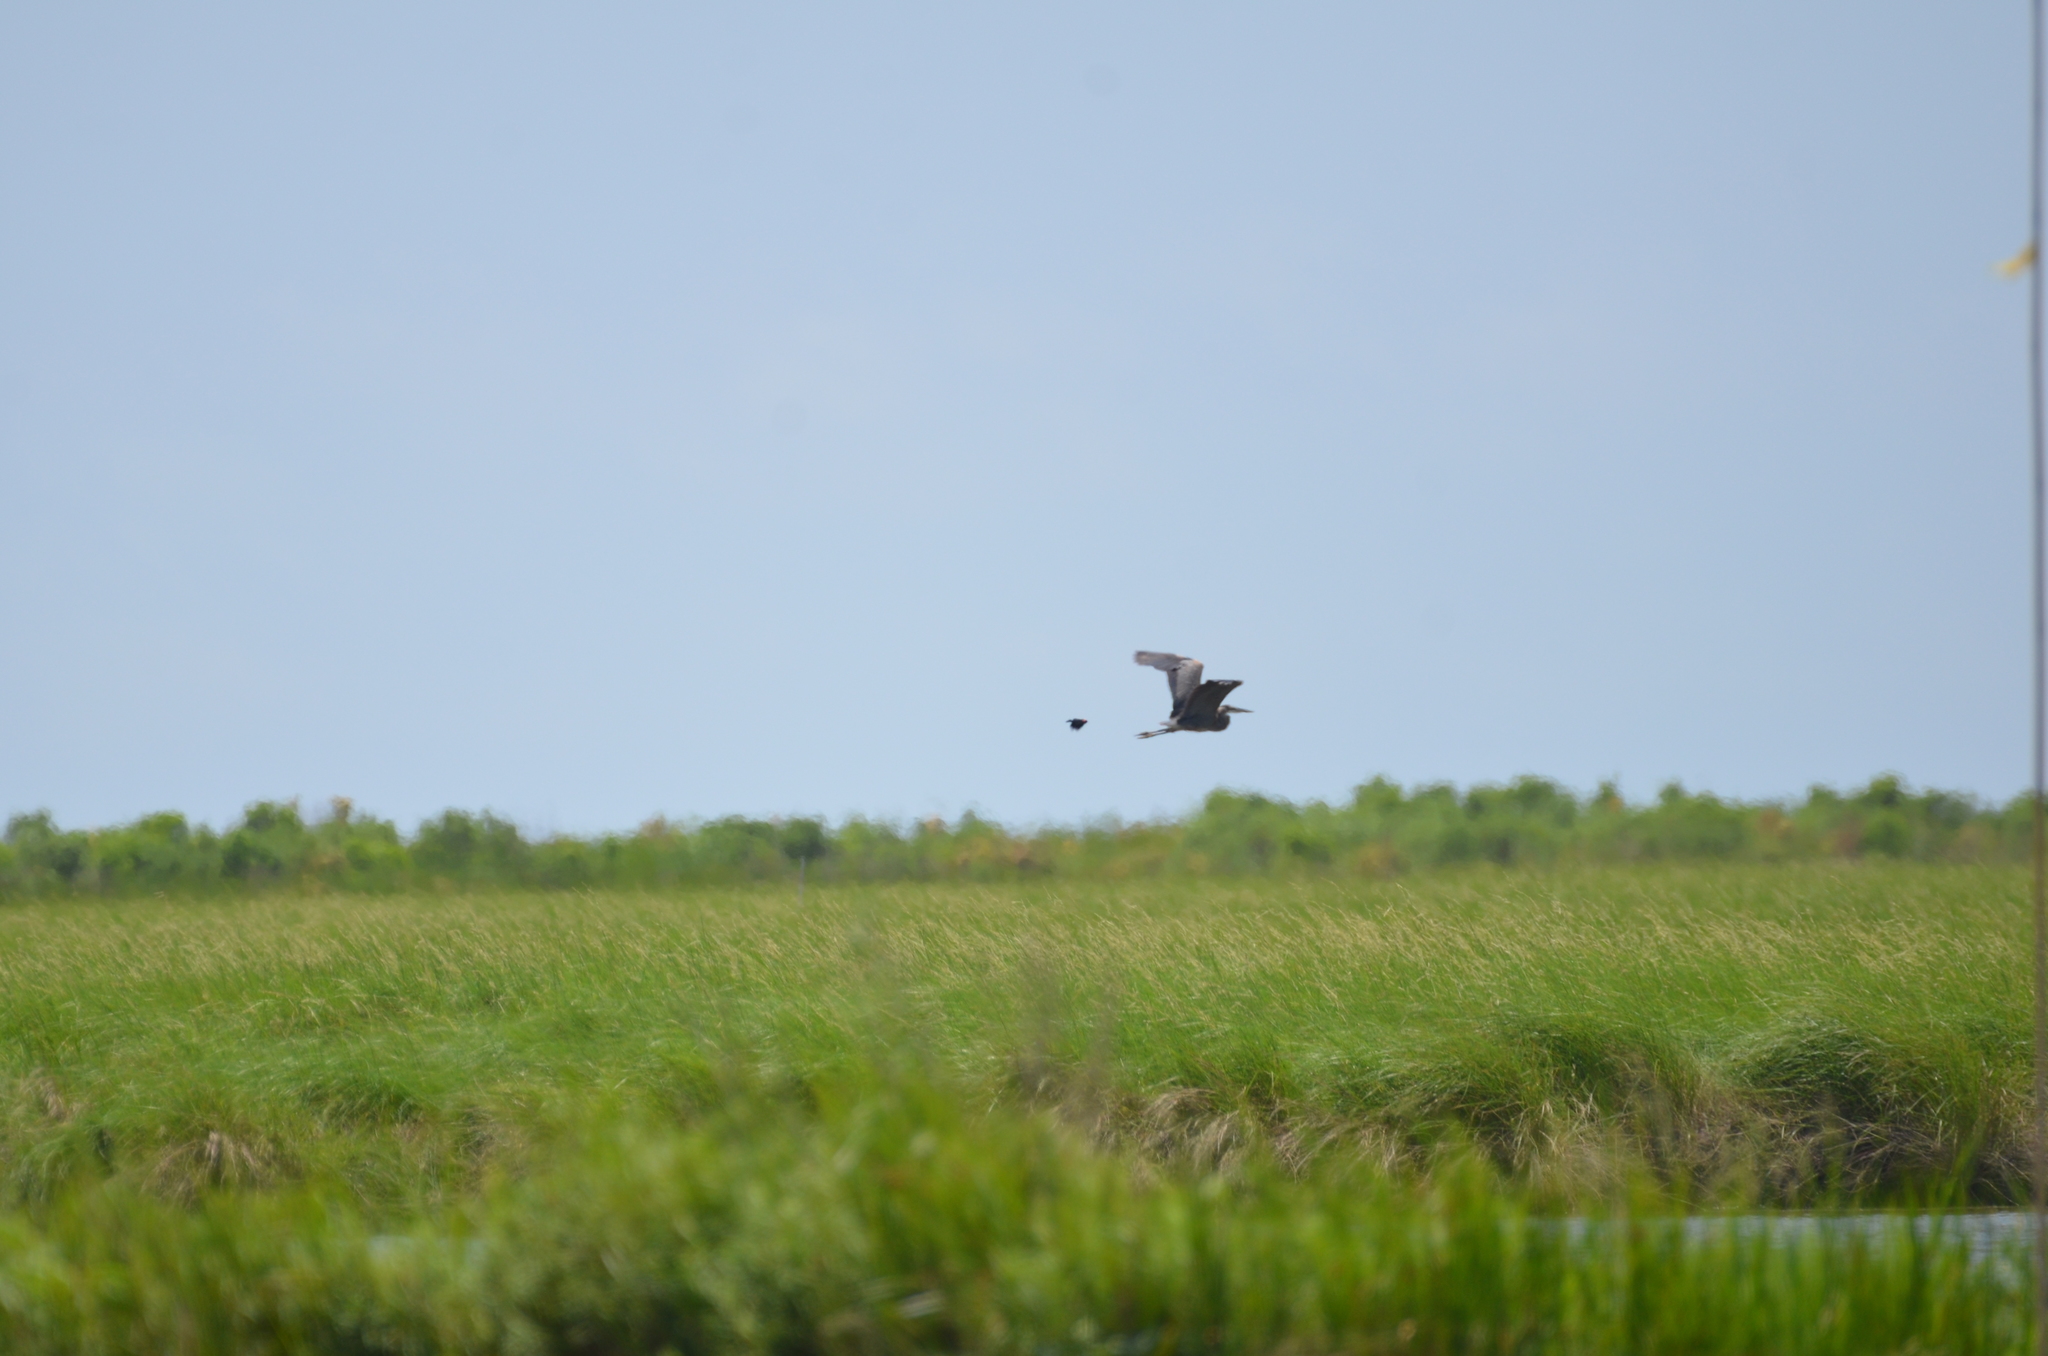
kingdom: Animalia
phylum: Chordata
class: Aves
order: Pelecaniformes
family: Ardeidae
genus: Ardea
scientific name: Ardea herodias
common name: Great blue heron
